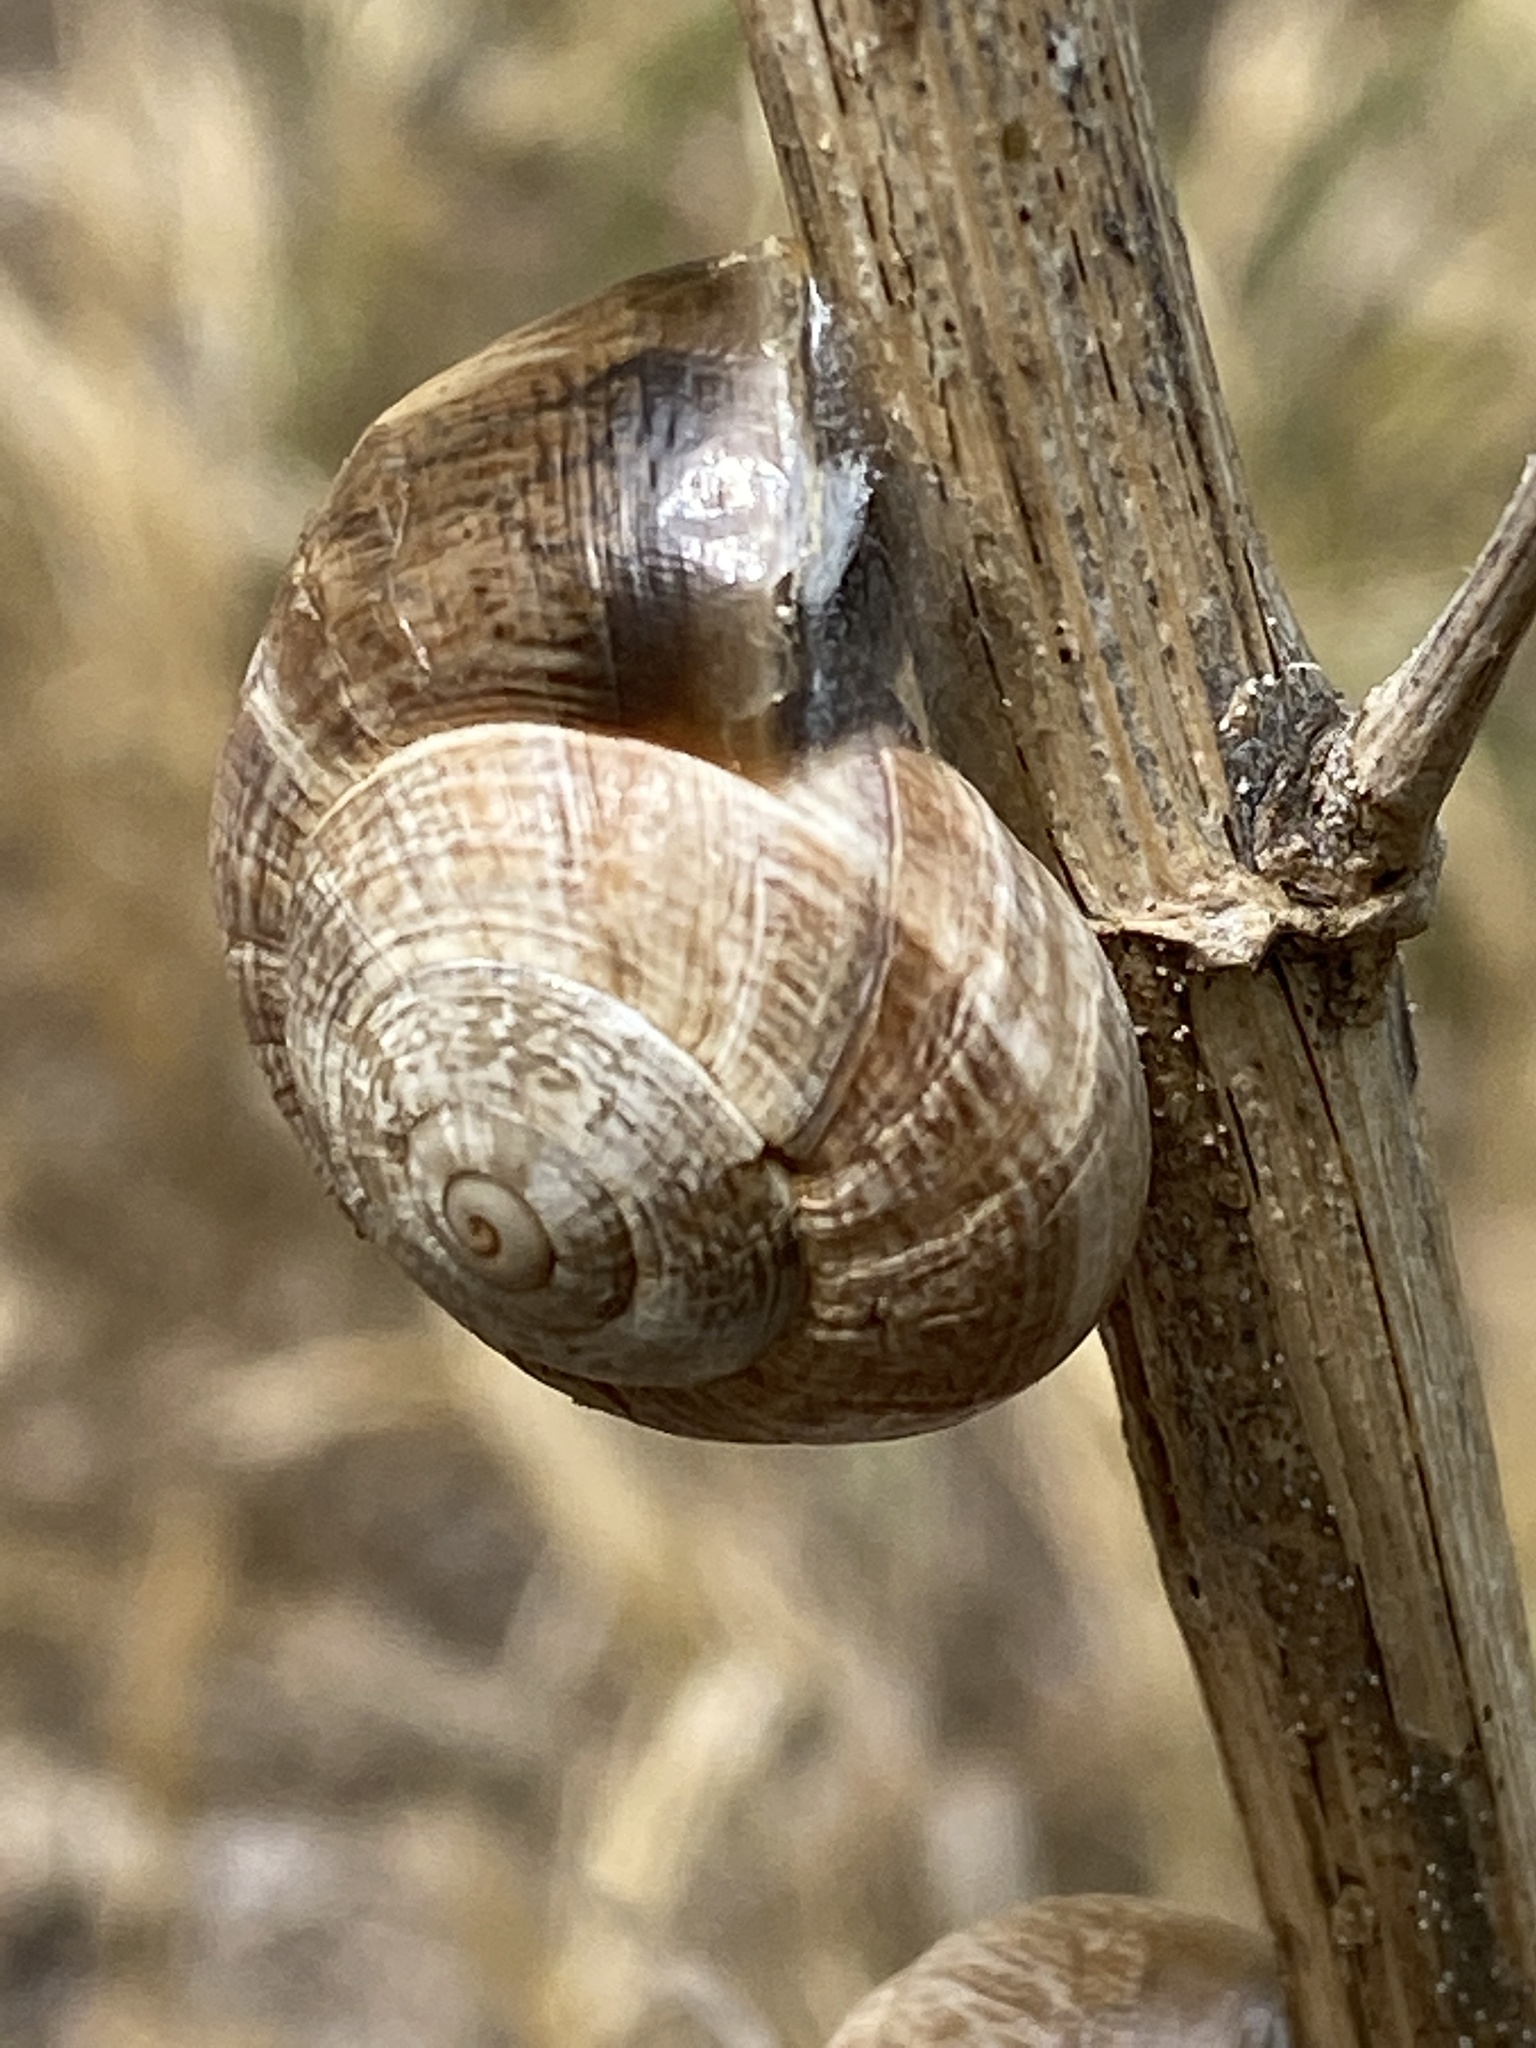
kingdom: Animalia
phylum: Mollusca
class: Gastropoda
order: Stylommatophora
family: Helicidae
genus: Otala
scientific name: Otala lactea
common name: Milk snail
